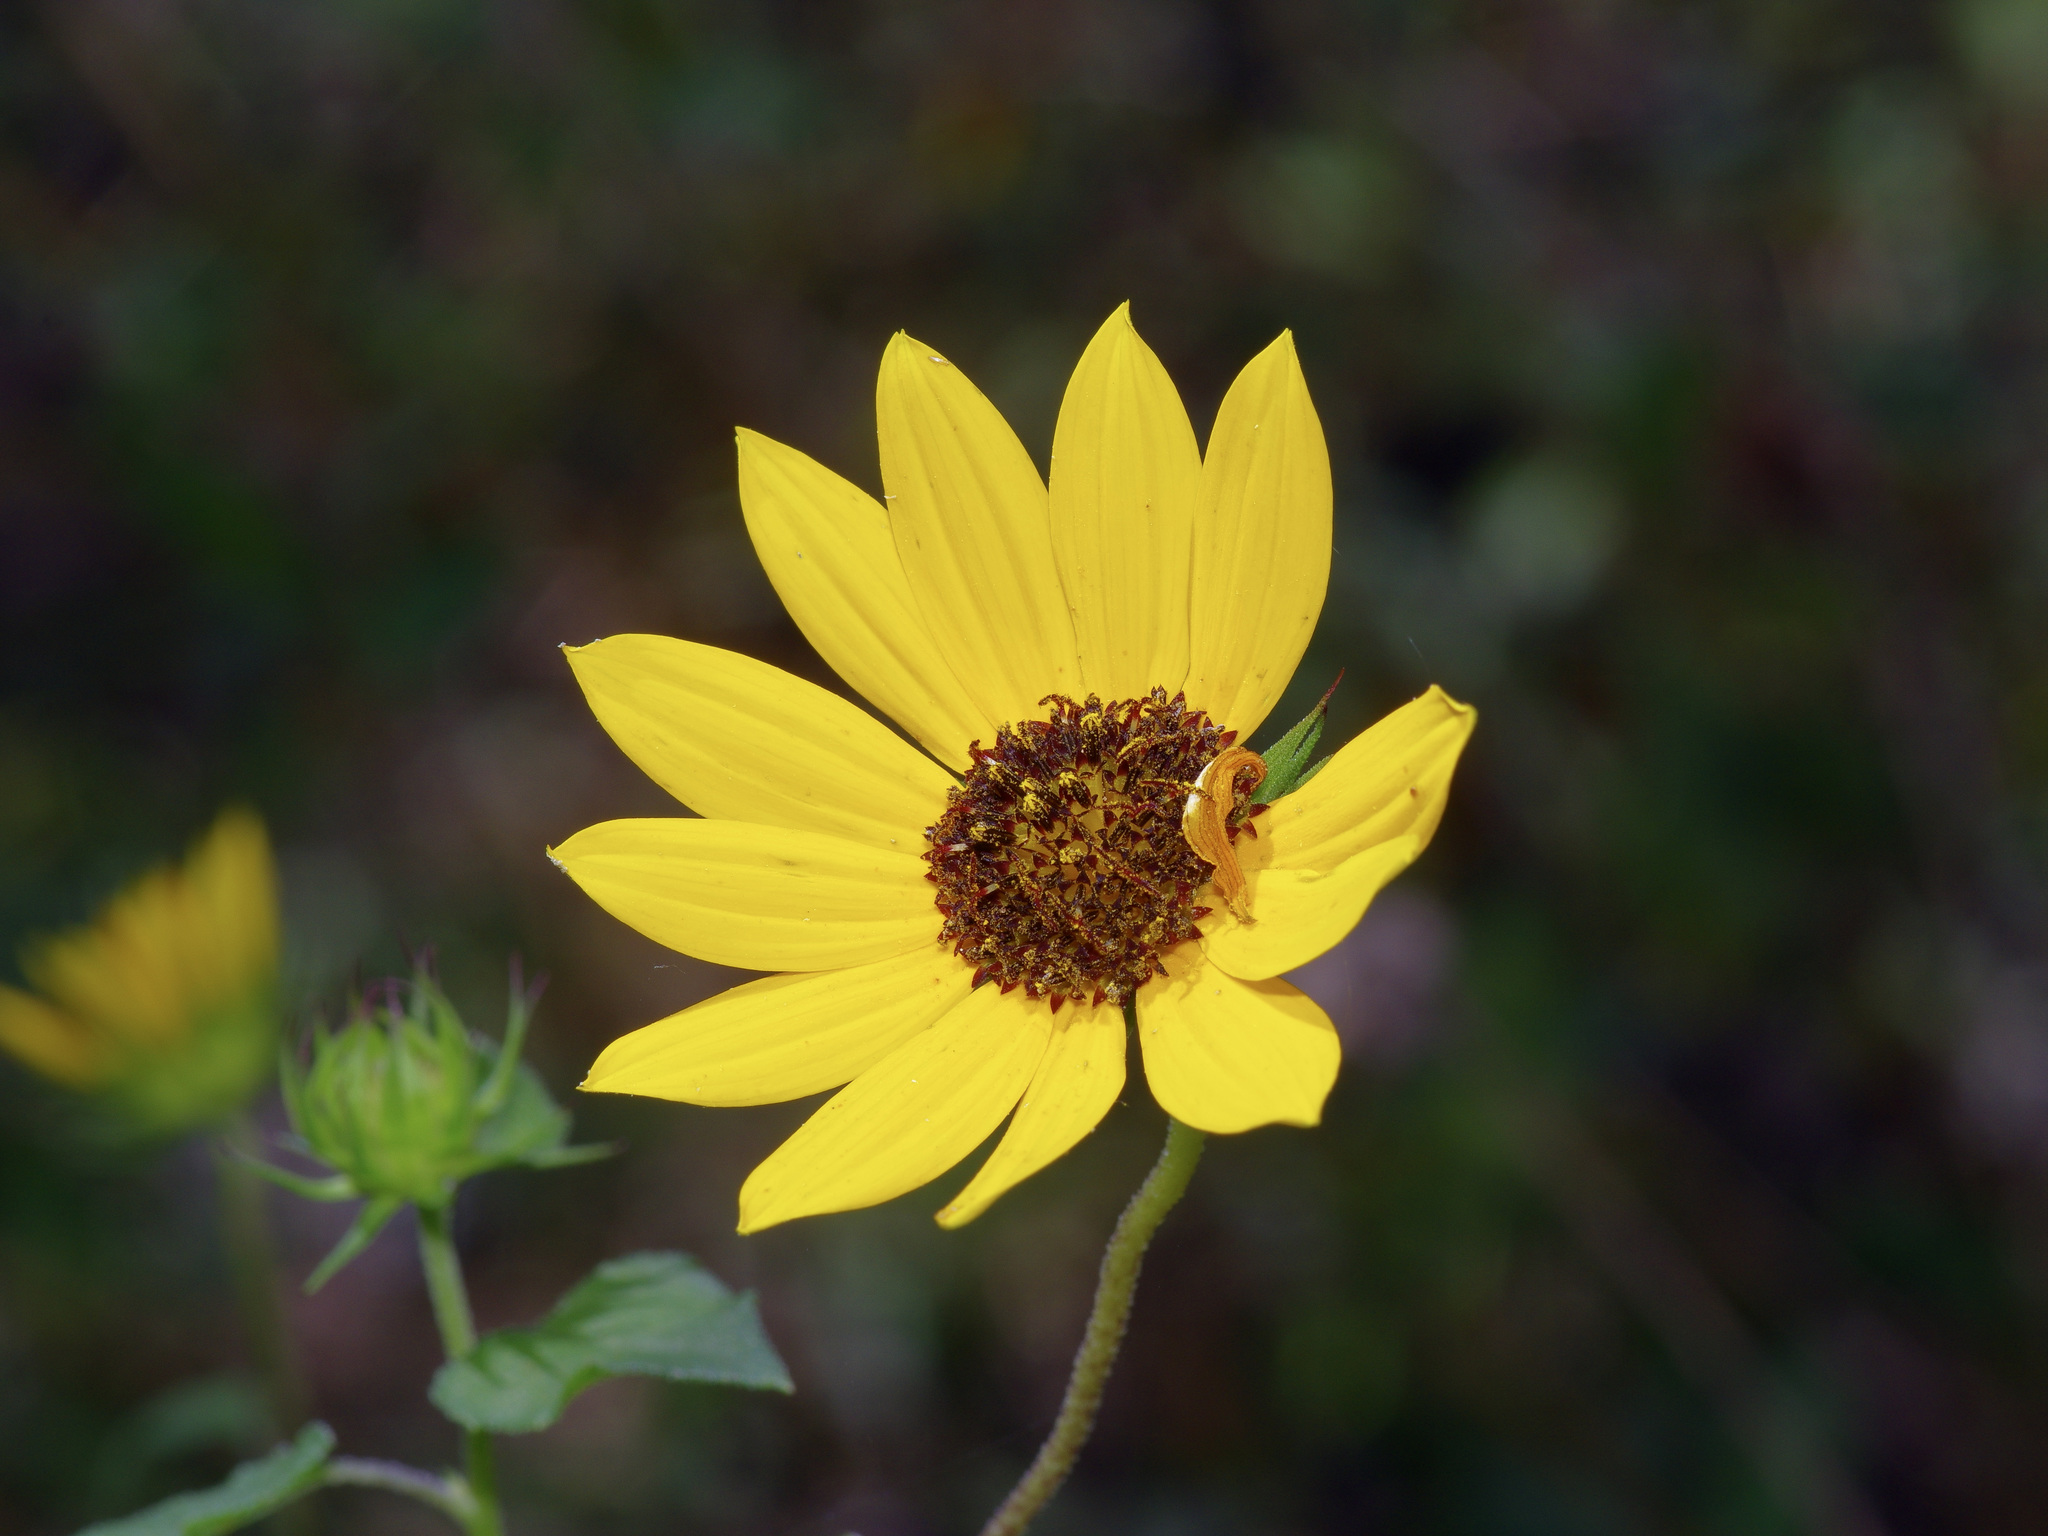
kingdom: Plantae
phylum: Tracheophyta
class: Magnoliopsida
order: Asterales
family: Asteraceae
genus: Helianthus
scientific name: Helianthus debilis
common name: Weak sunflower
